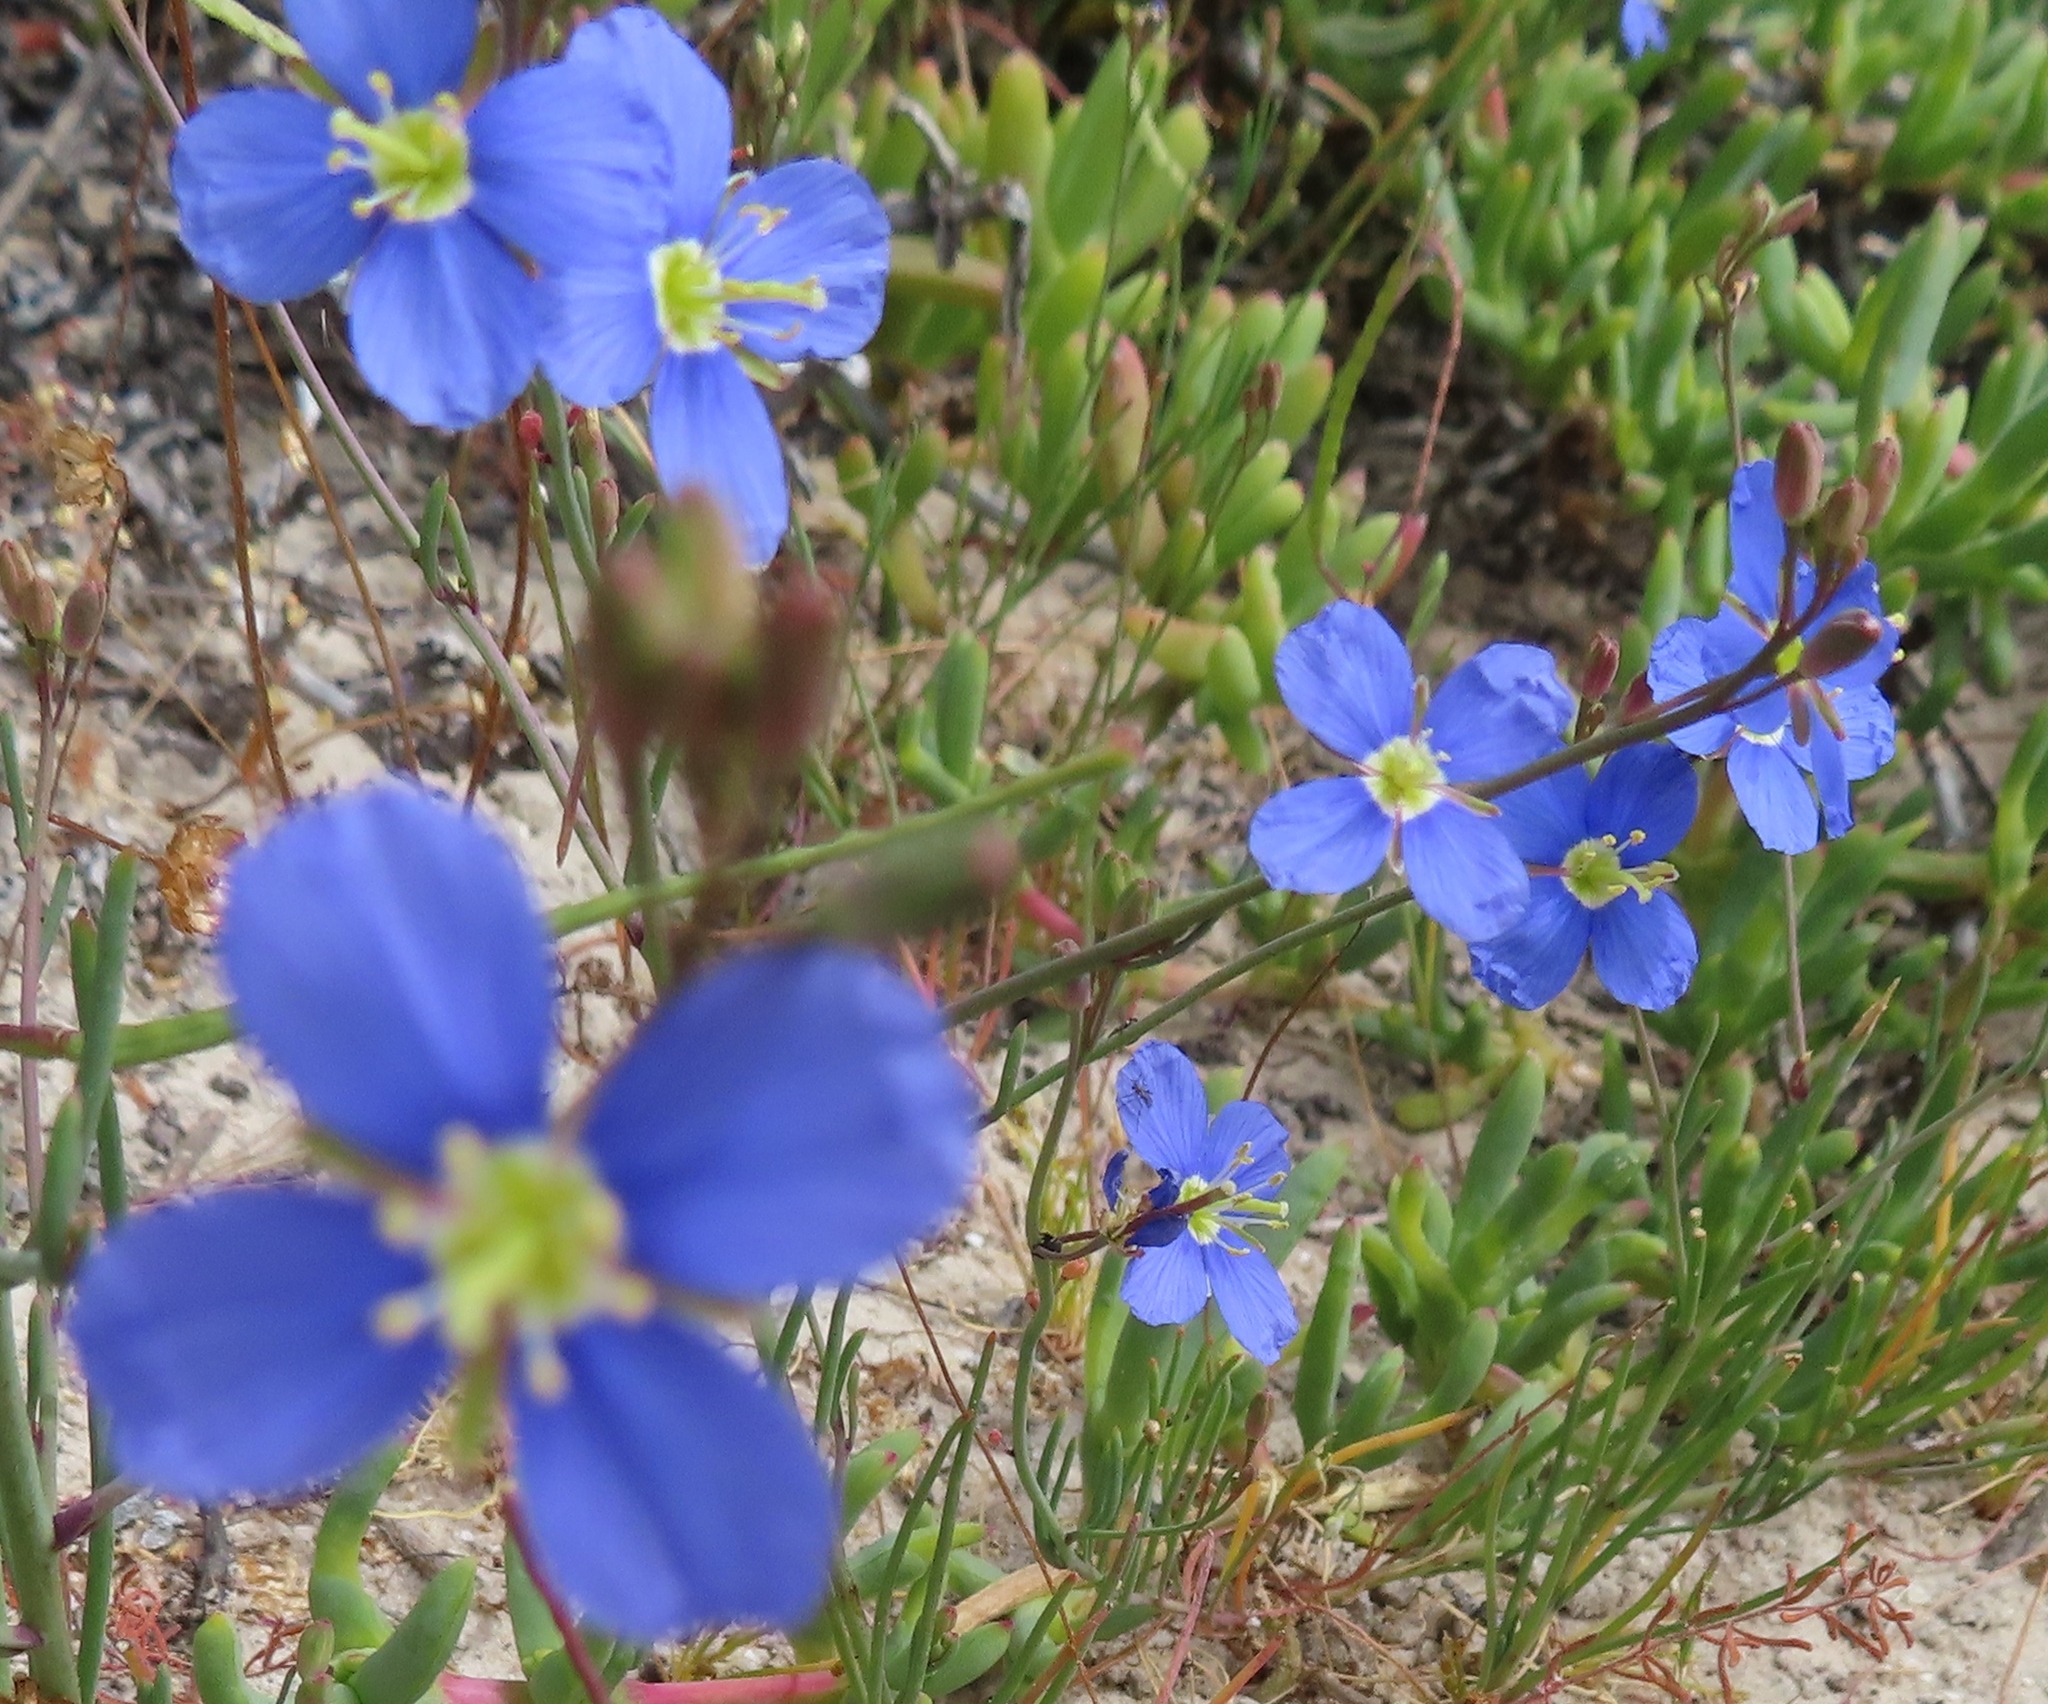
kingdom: Plantae
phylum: Tracheophyta
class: Magnoliopsida
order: Brassicales
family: Brassicaceae
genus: Heliophila
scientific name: Heliophila arenaria
